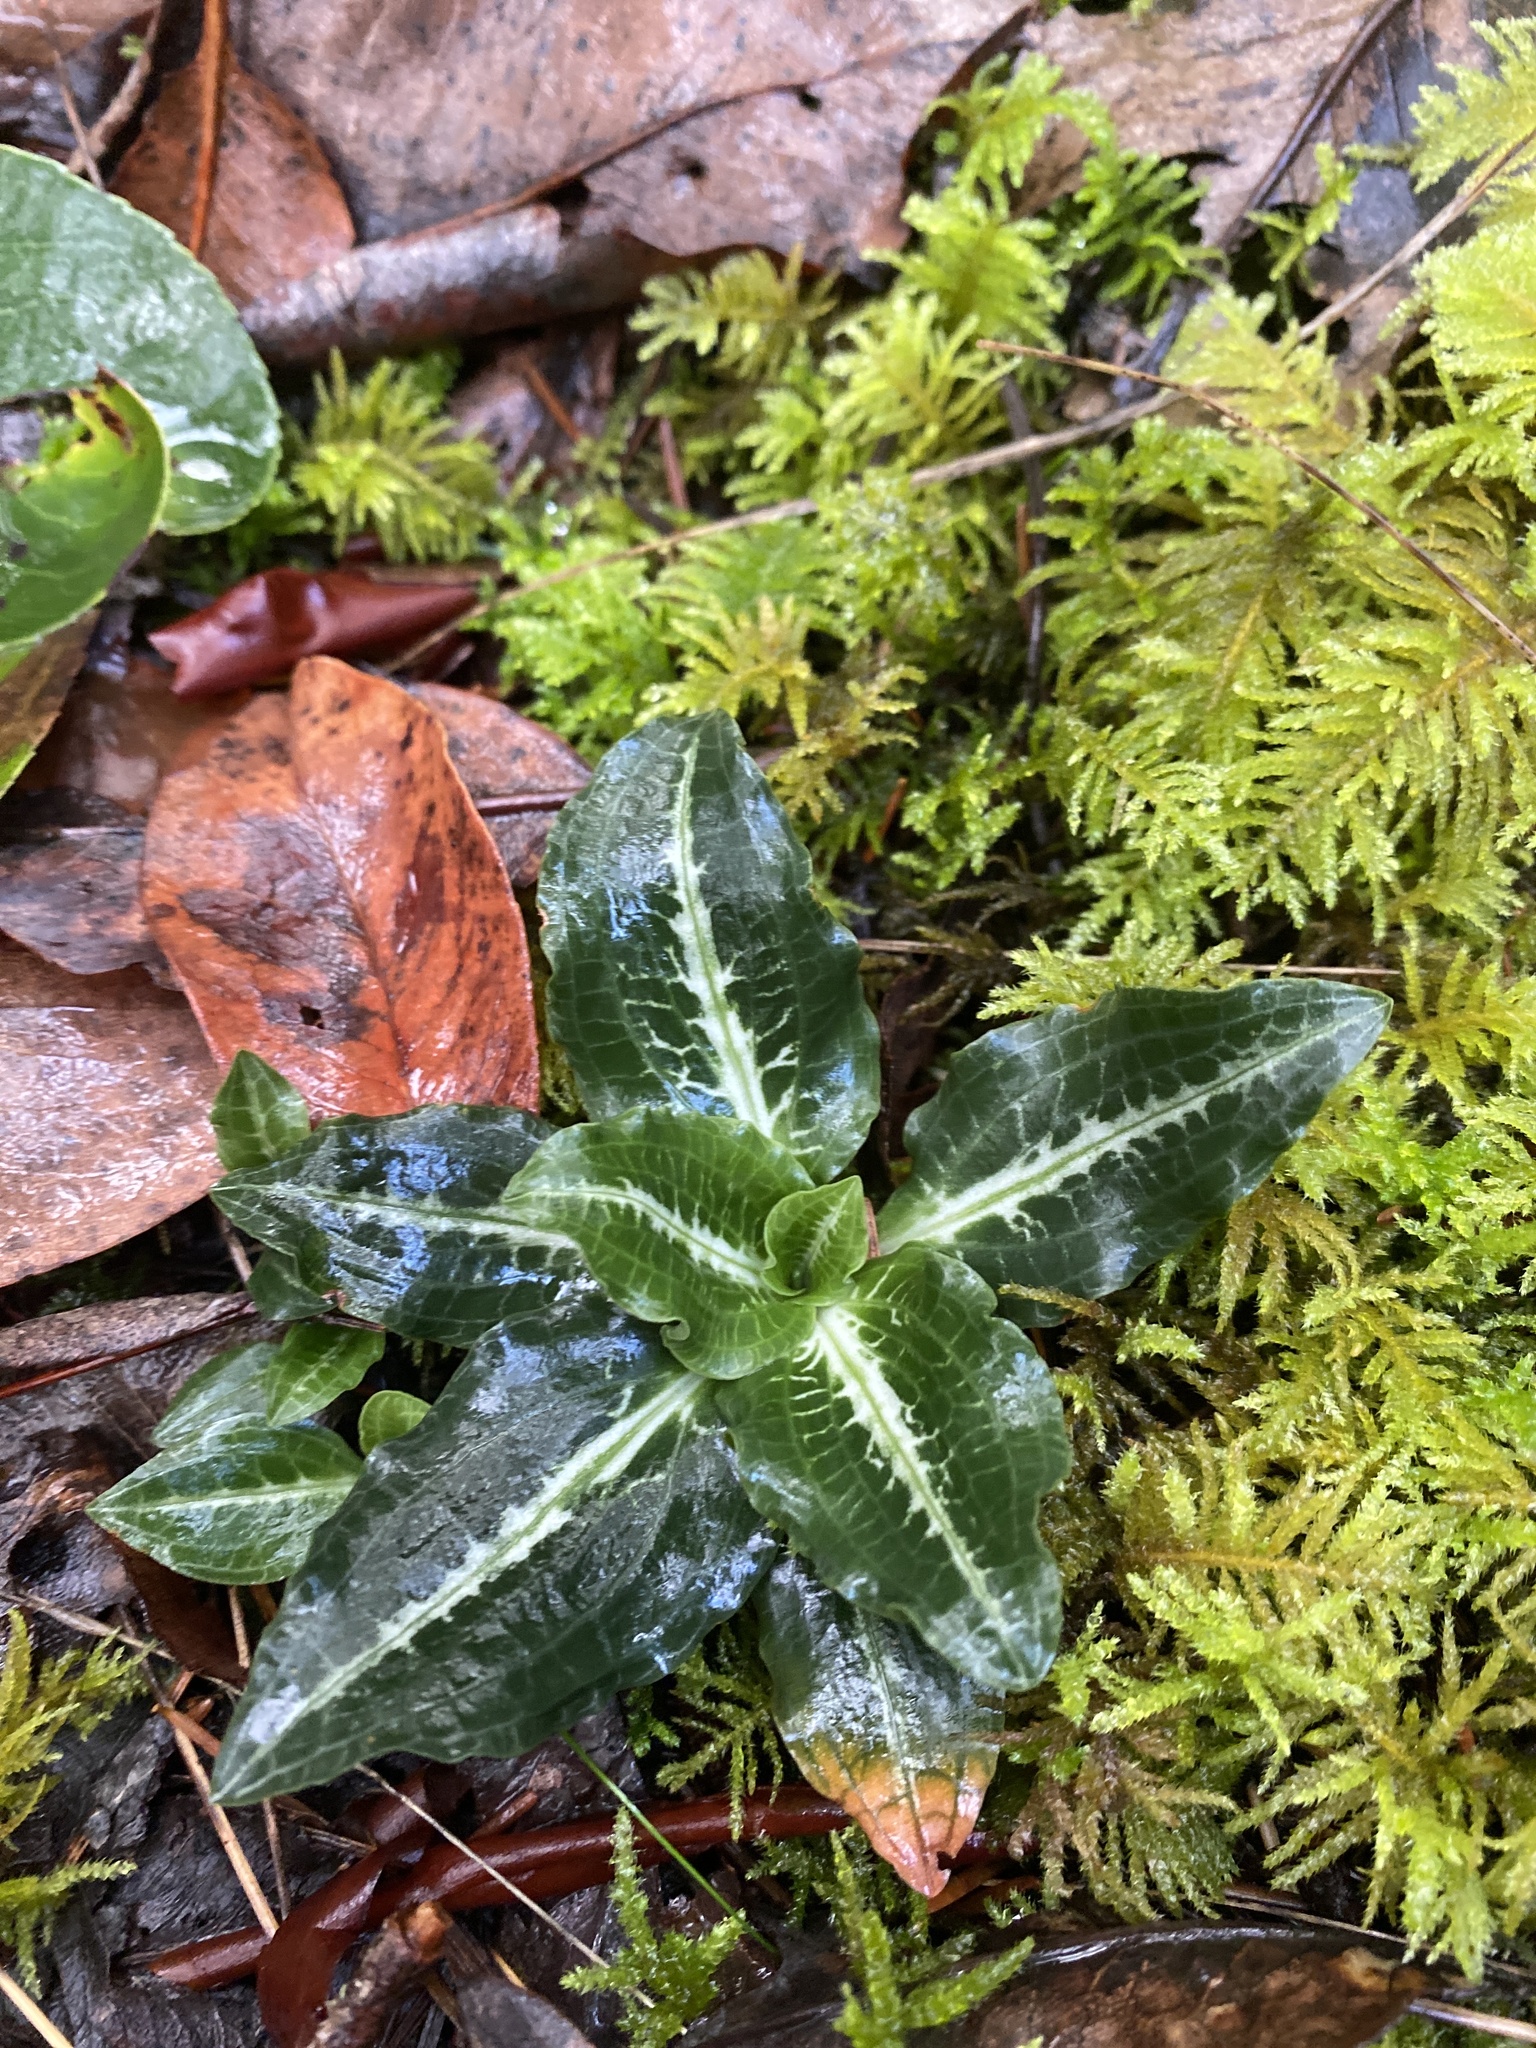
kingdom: Plantae
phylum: Tracheophyta
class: Liliopsida
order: Asparagales
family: Orchidaceae
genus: Goodyera
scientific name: Goodyera oblongifolia
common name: Giant rattlesnake-plantain
